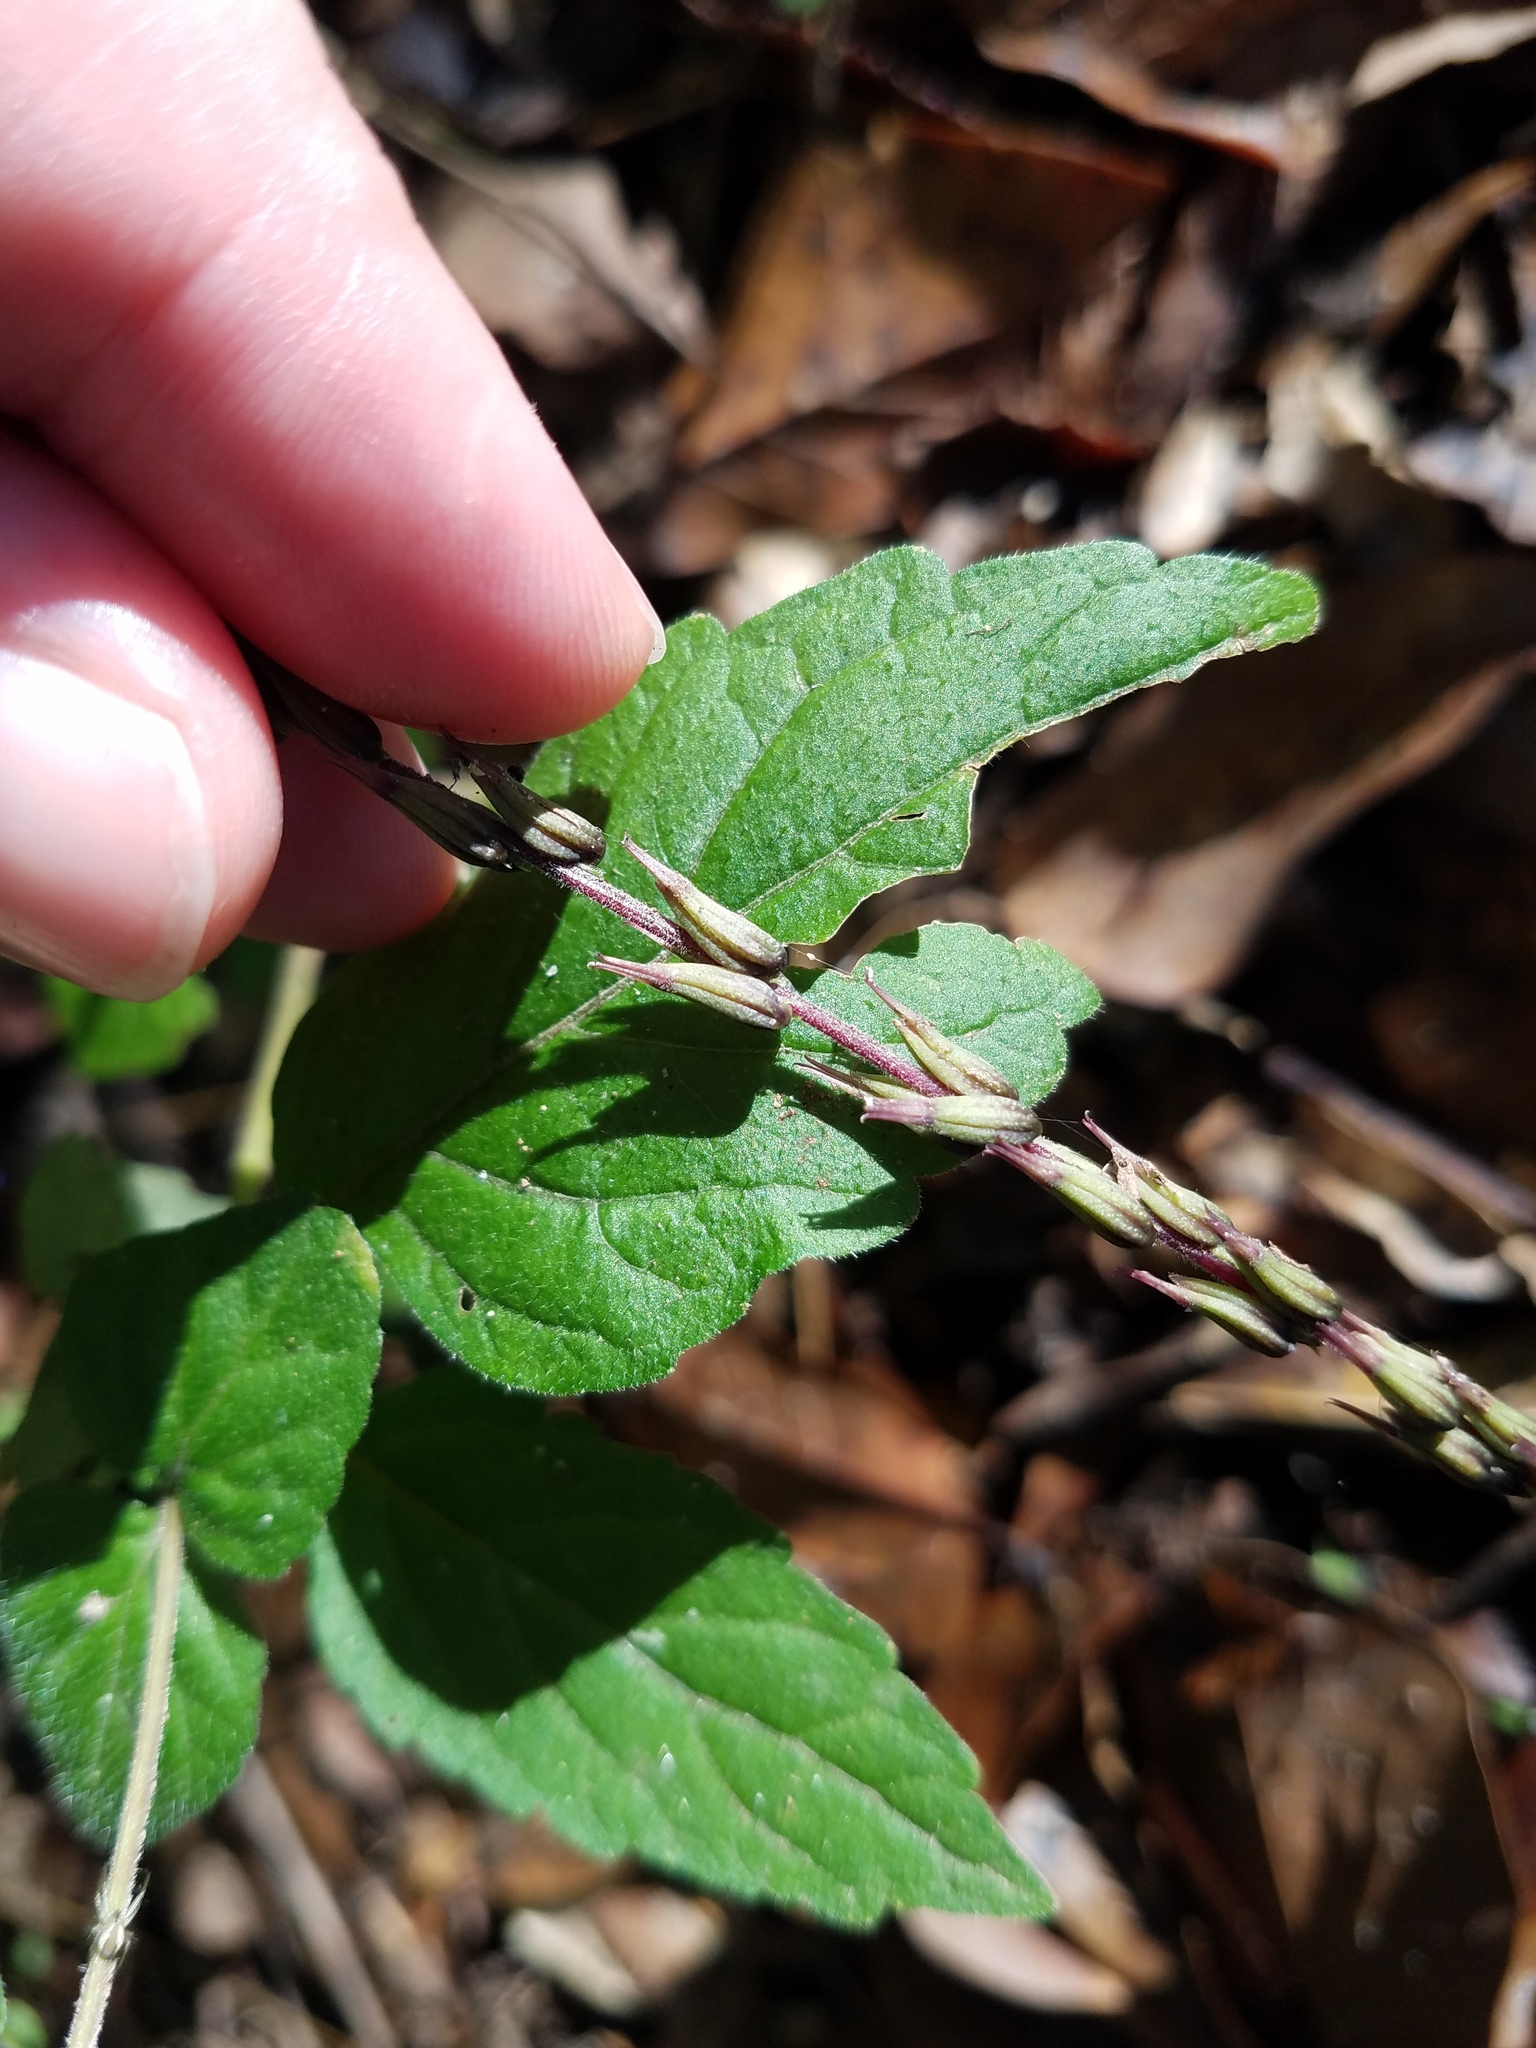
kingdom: Plantae
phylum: Tracheophyta
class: Magnoliopsida
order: Lamiales
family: Phrymaceae
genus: Phryma
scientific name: Phryma leptostachya
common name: American lopseed
